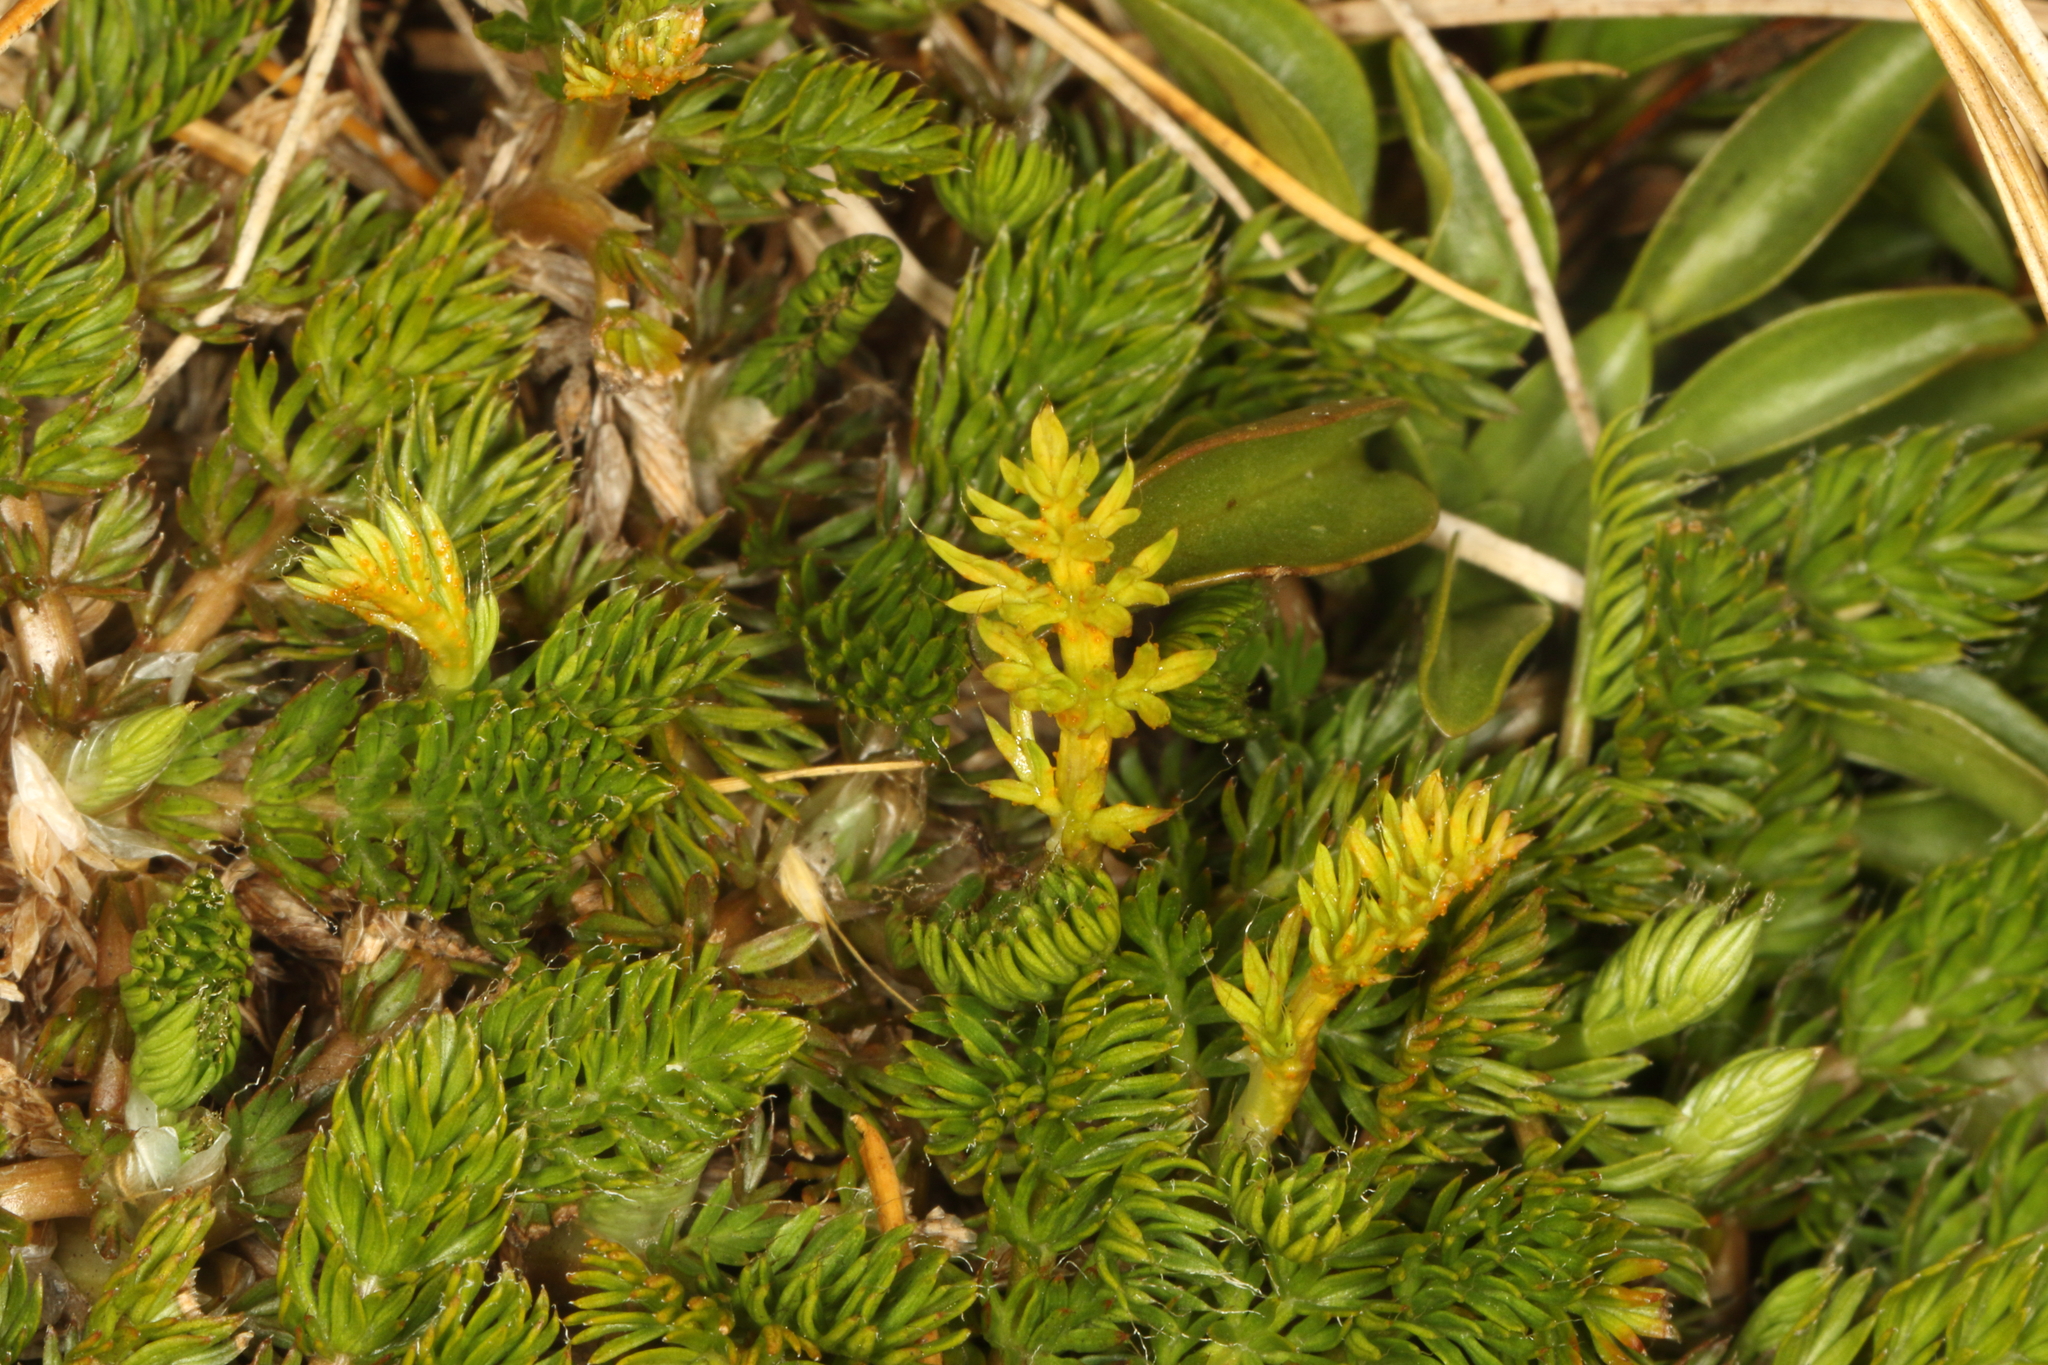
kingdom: Plantae
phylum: Tracheophyta
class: Magnoliopsida
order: Apiales
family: Apiaceae
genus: Anisotome
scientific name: Anisotome imbricata
